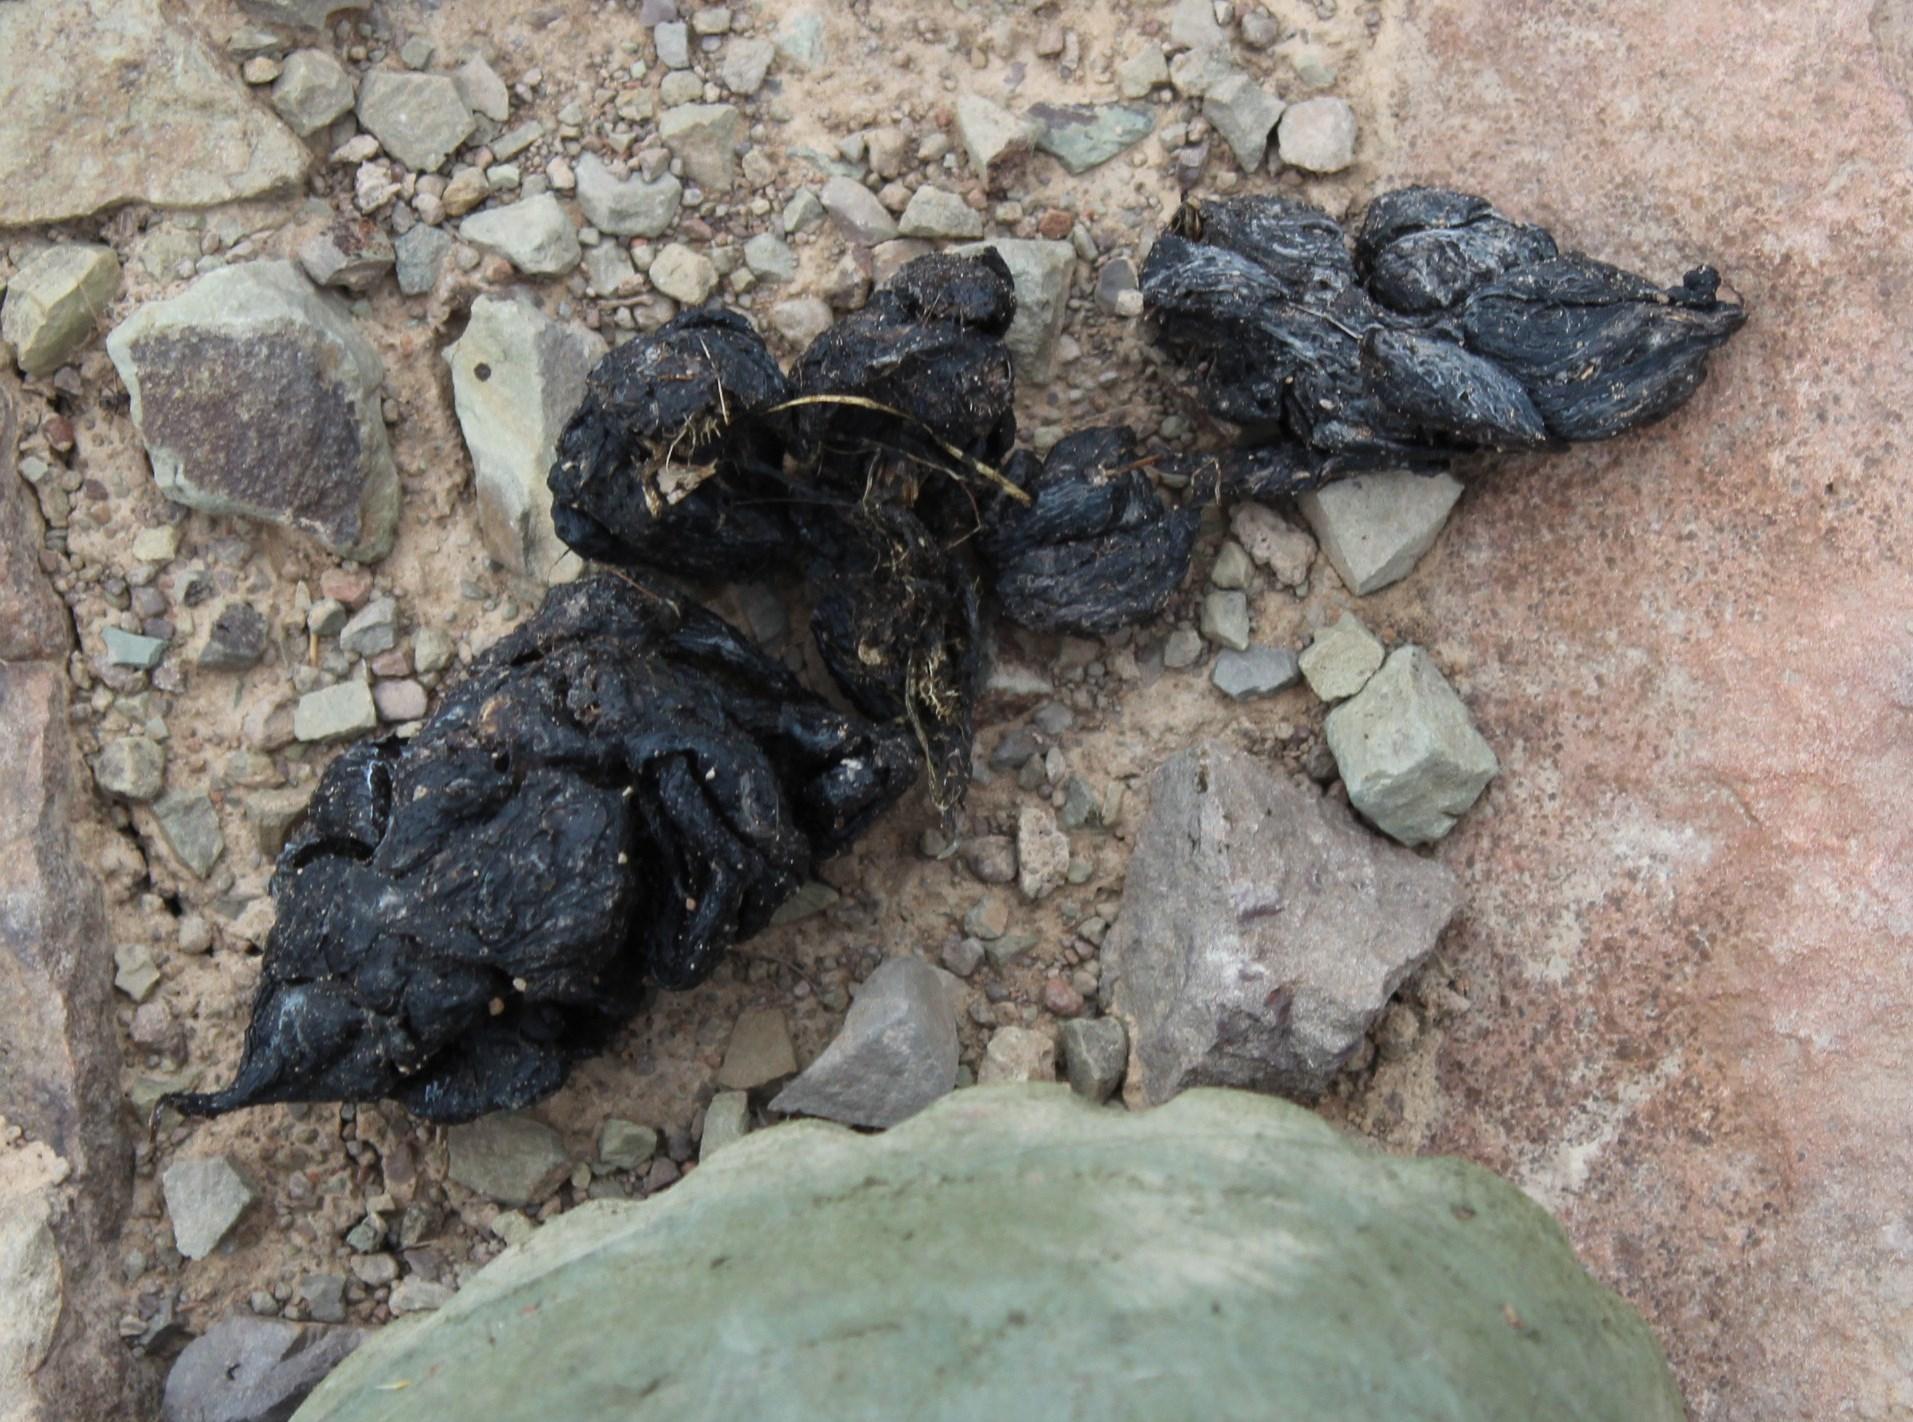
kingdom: Animalia
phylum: Chordata
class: Mammalia
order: Rodentia
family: Hystricidae
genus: Hystrix
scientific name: Hystrix africaeaustralis
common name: Cape porcupine
